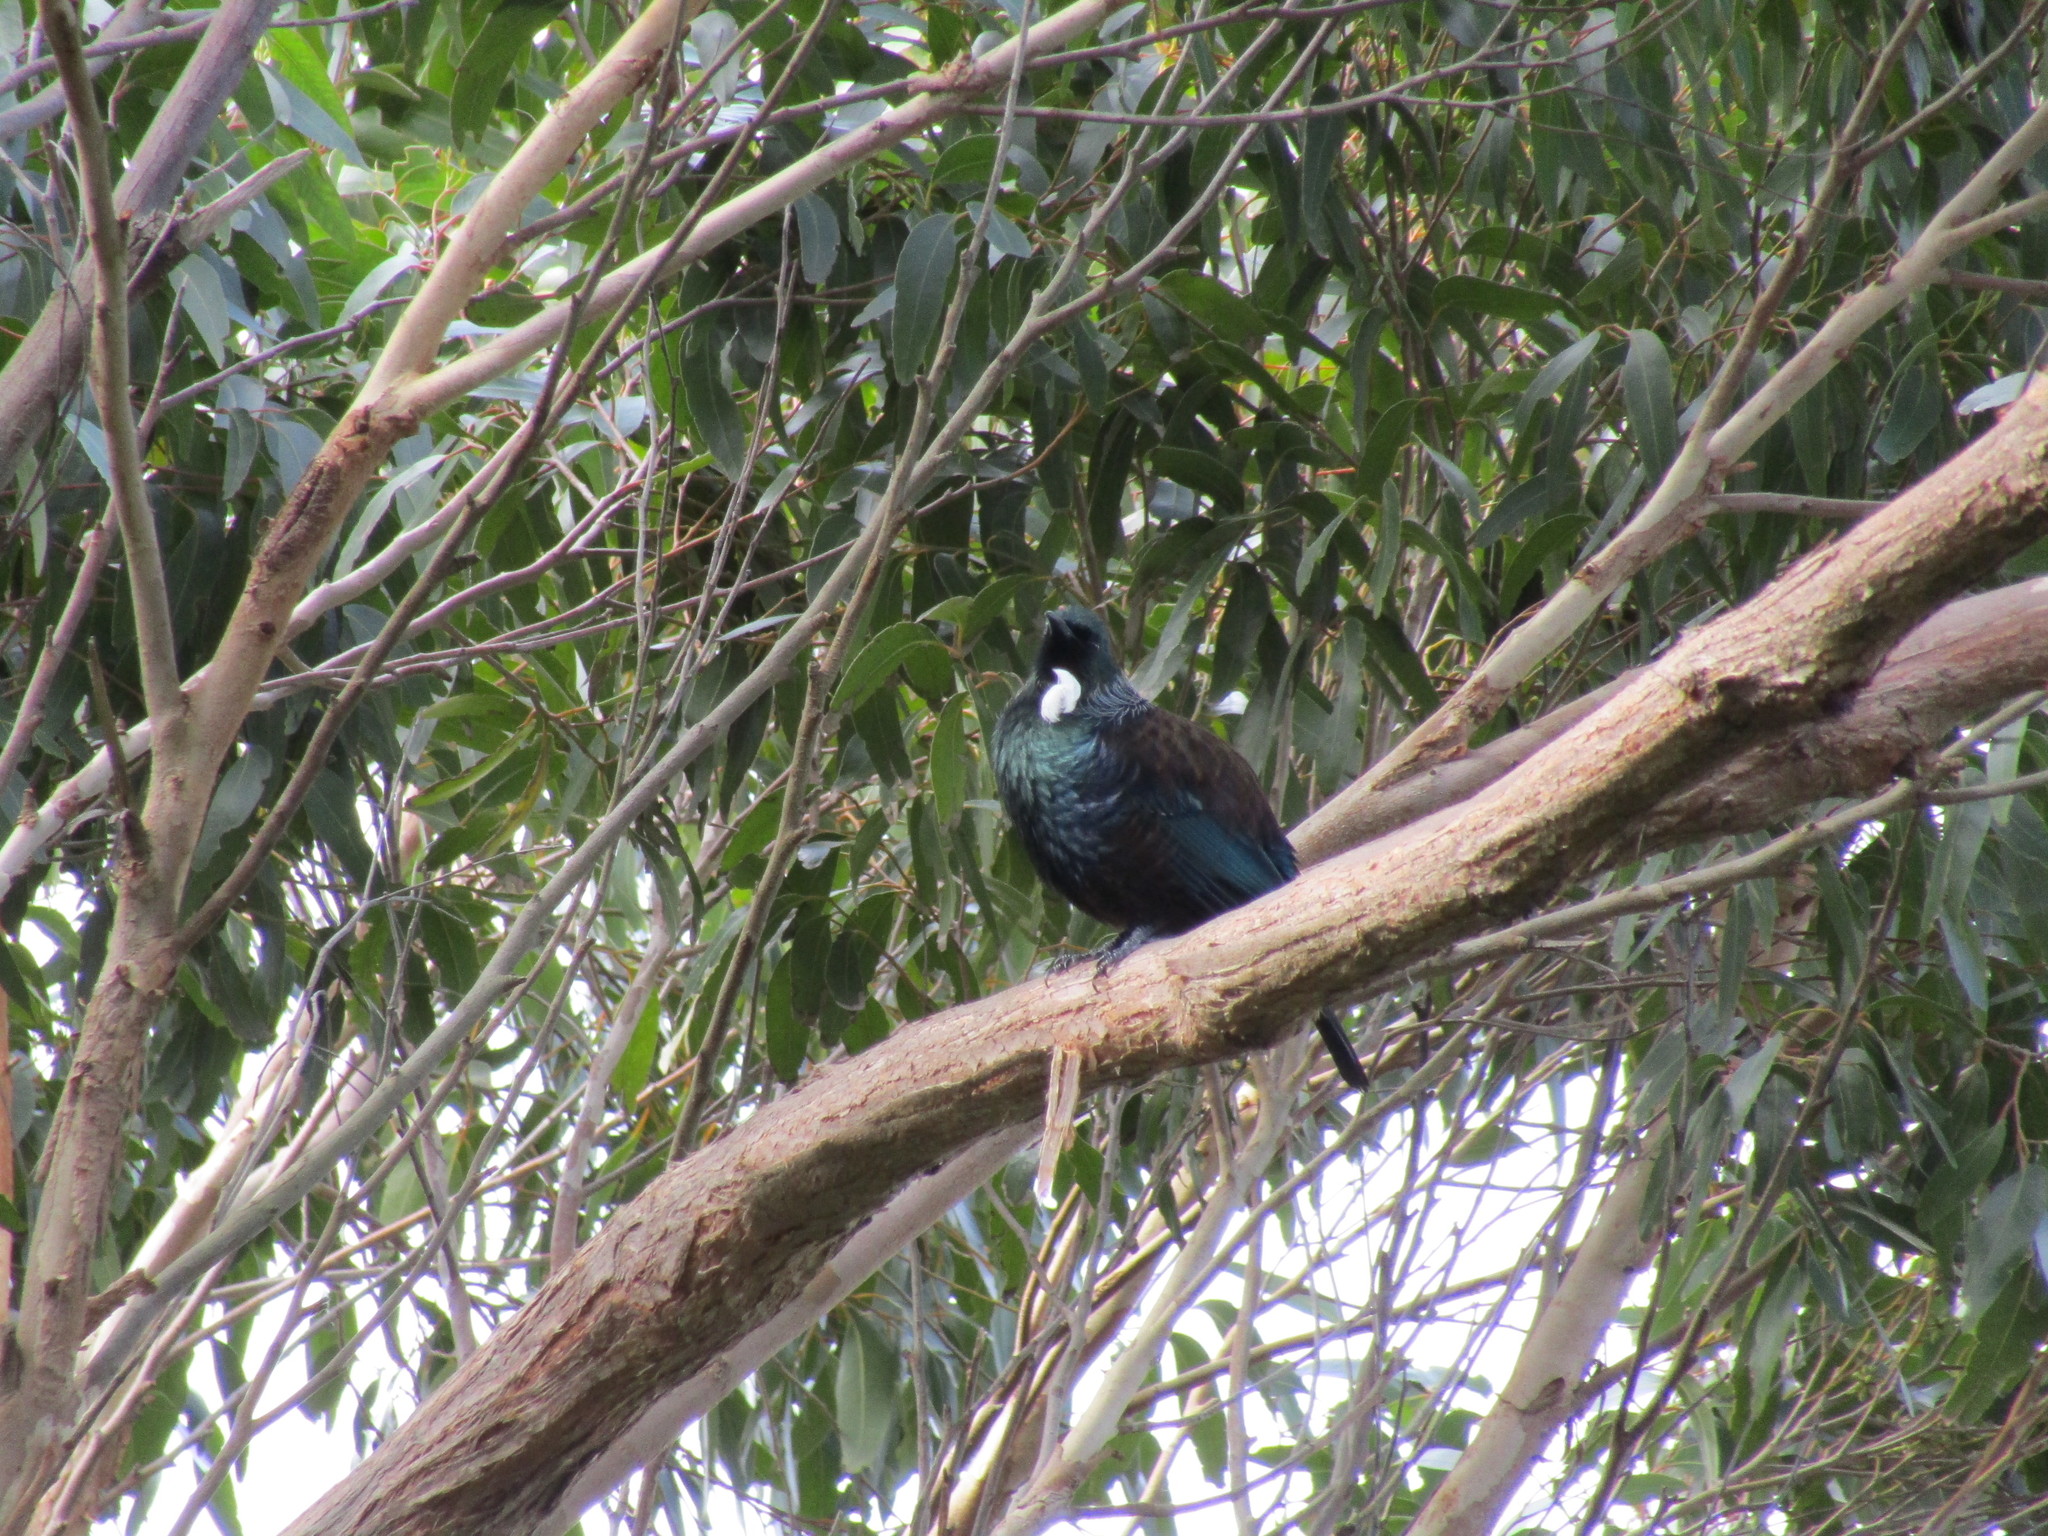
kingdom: Animalia
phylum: Chordata
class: Aves
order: Passeriformes
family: Meliphagidae
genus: Prosthemadera
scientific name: Prosthemadera novaeseelandiae
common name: Tui
